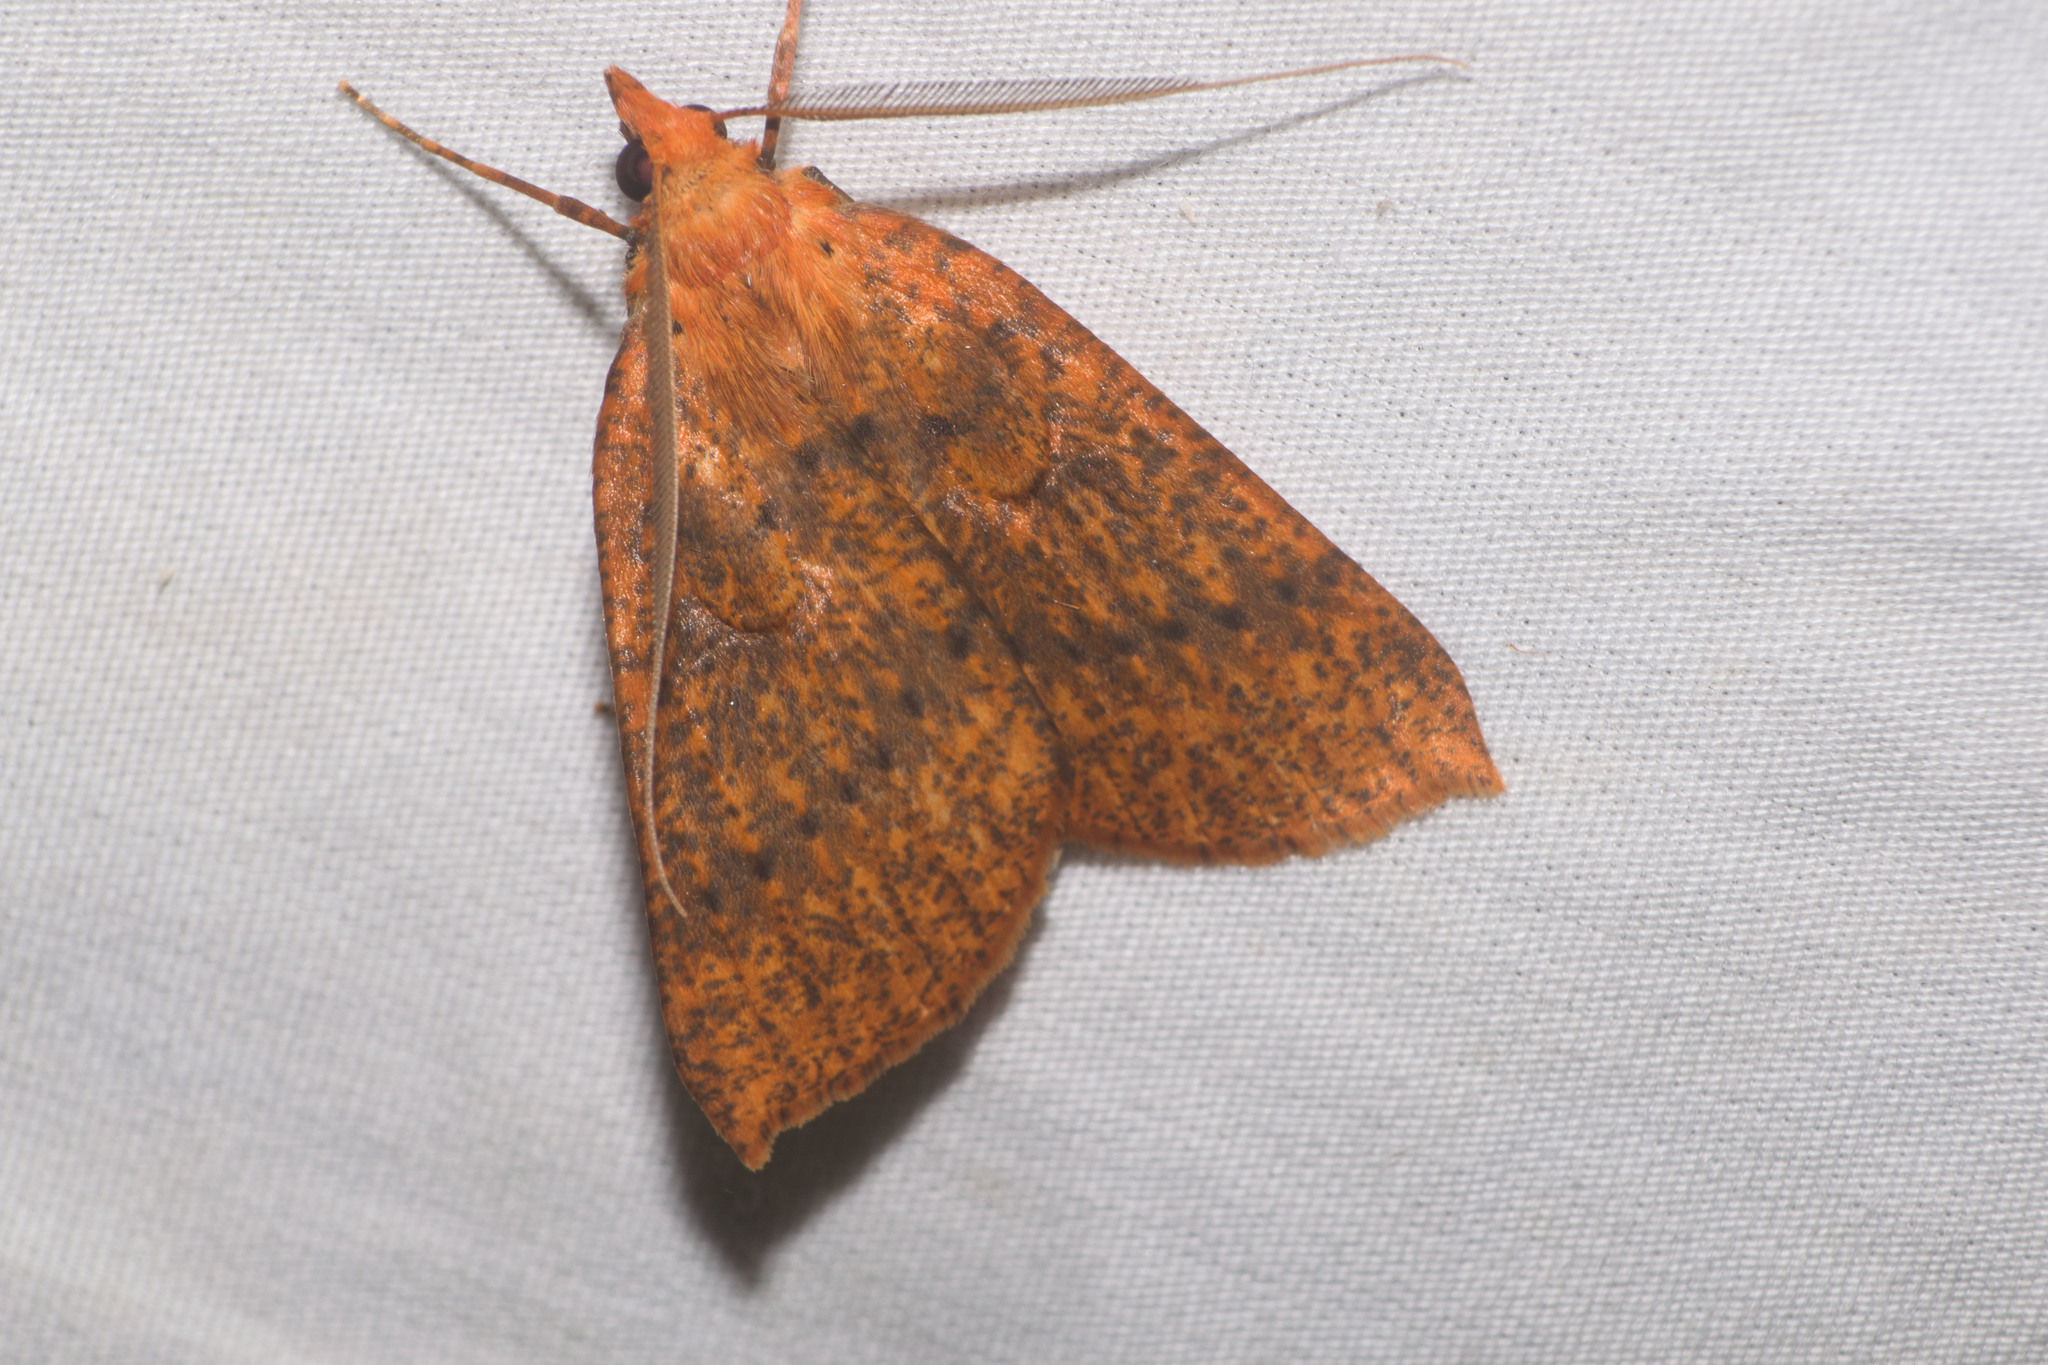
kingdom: Animalia
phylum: Arthropoda
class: Insecta
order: Lepidoptera
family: Geometridae
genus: Scotorythra
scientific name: Scotorythra epixantha
